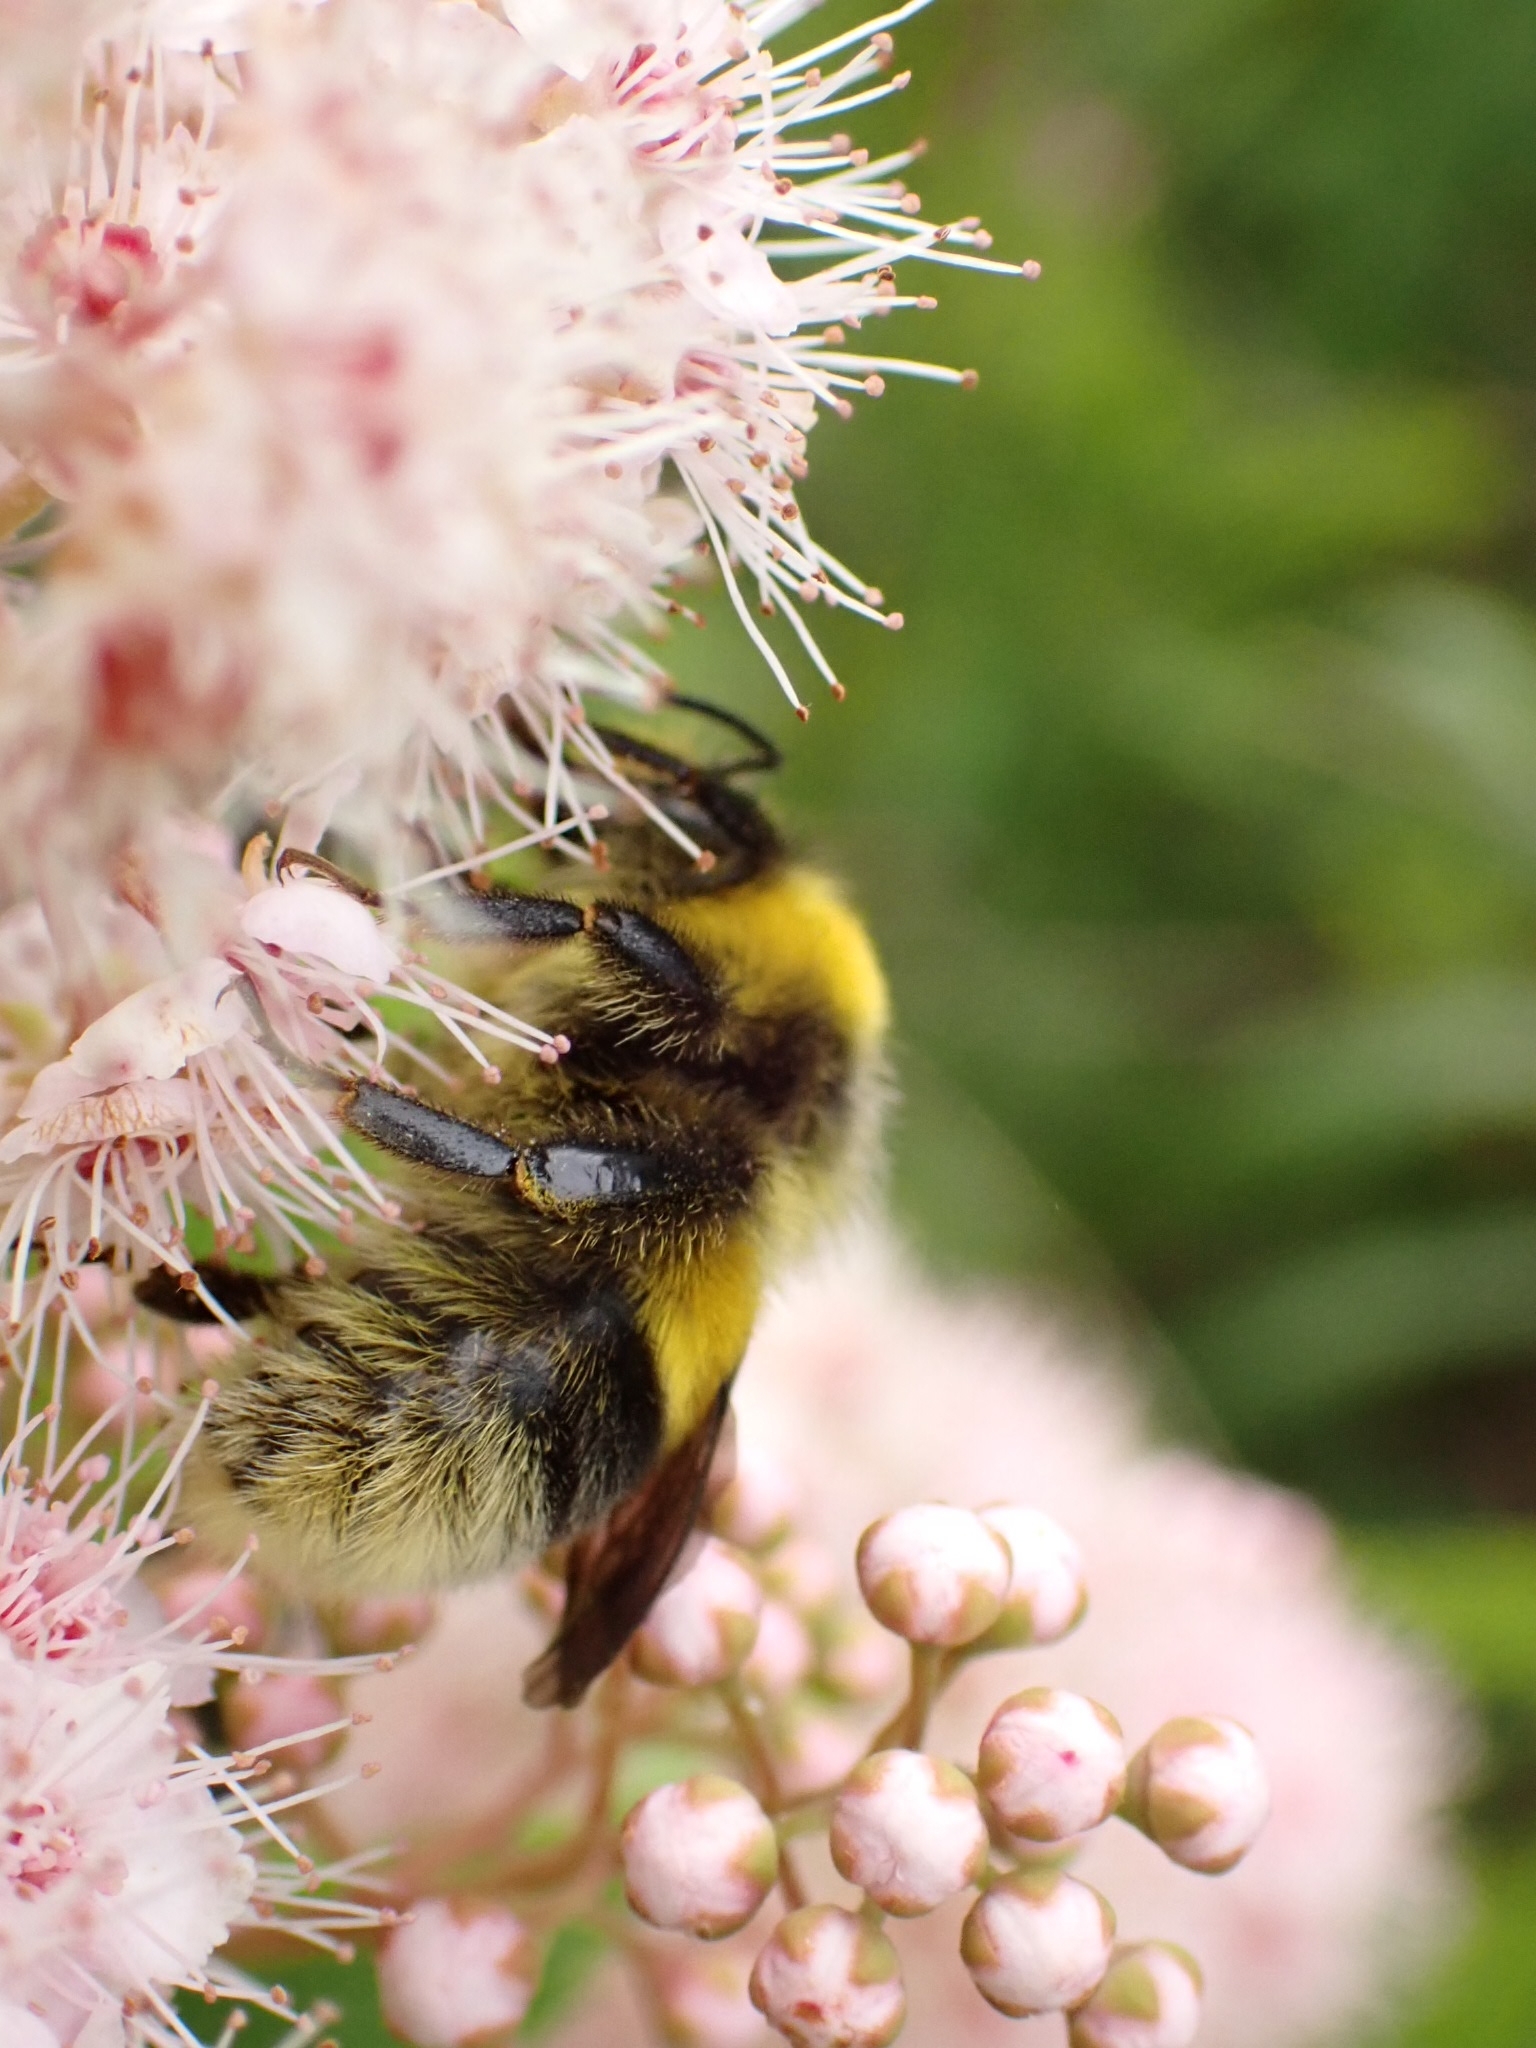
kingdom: Animalia
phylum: Arthropoda
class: Insecta
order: Hymenoptera
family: Apidae
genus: Bombus
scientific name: Bombus lucorum
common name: White-tailed bumblebee
